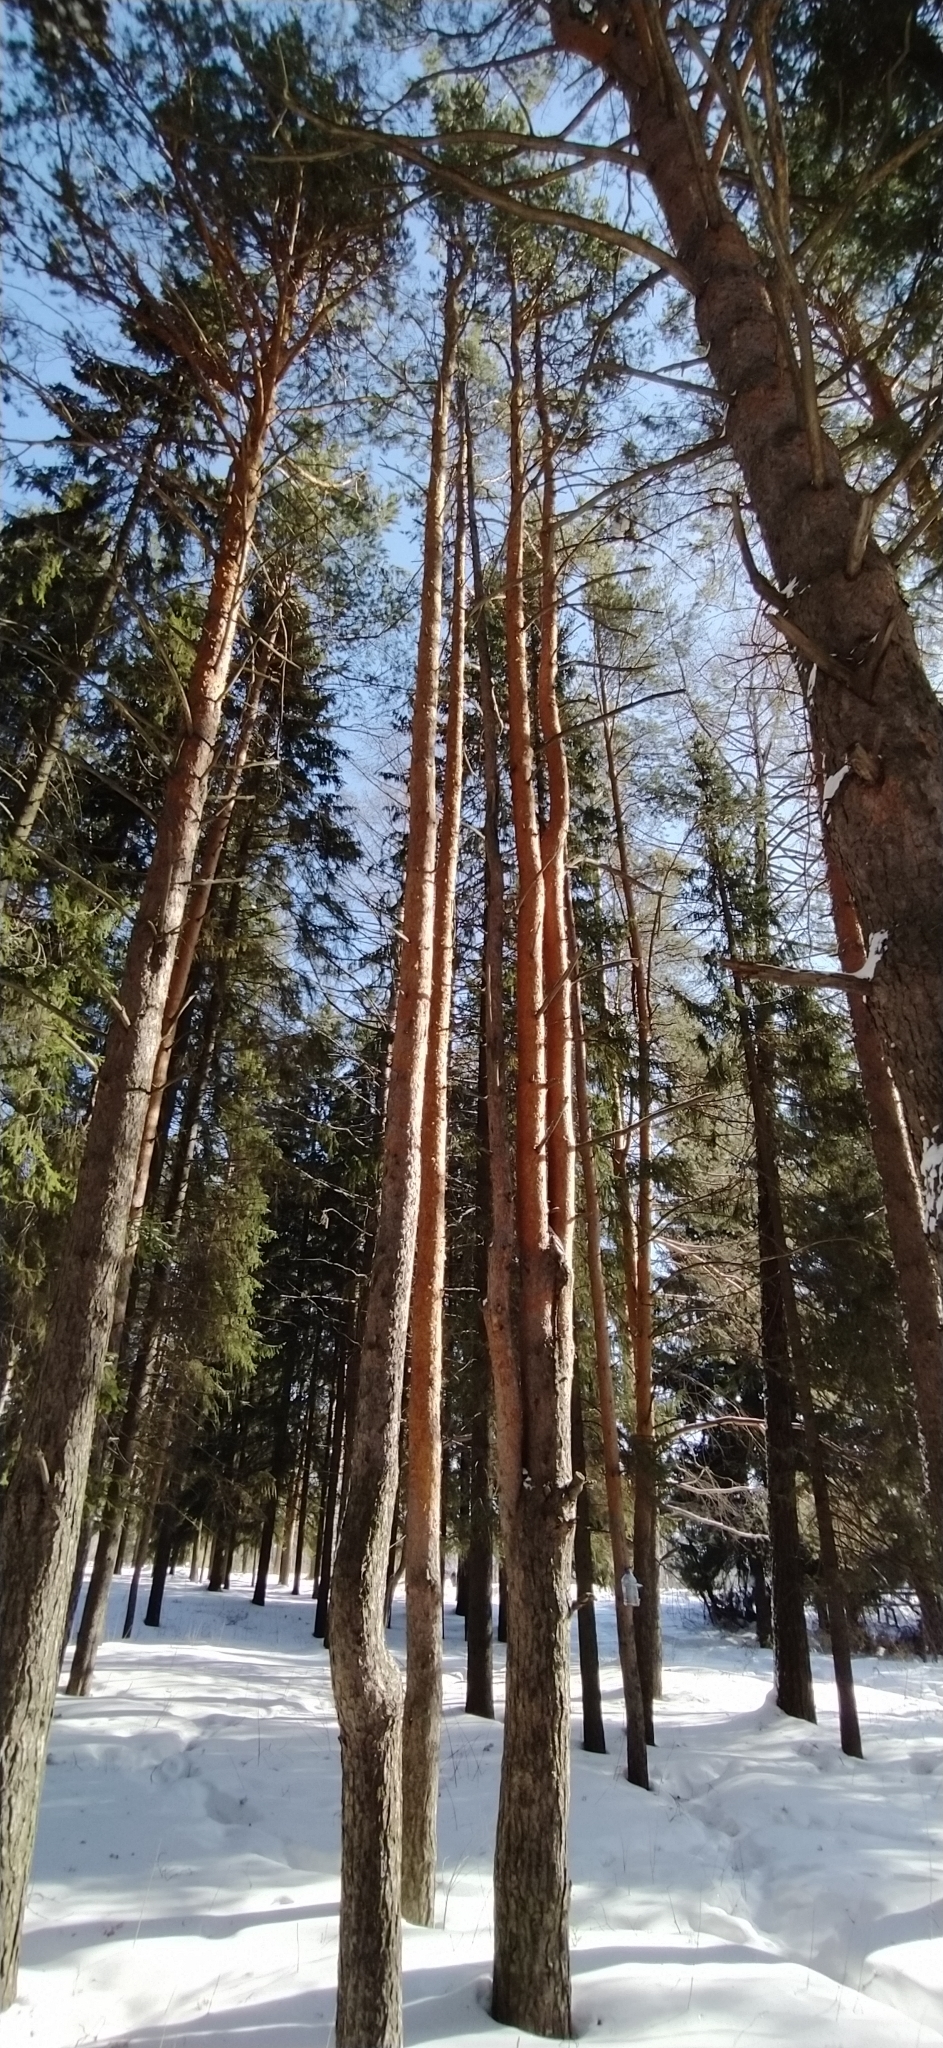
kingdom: Plantae
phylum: Tracheophyta
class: Pinopsida
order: Pinales
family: Pinaceae
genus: Pinus
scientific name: Pinus sylvestris
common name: Scots pine
